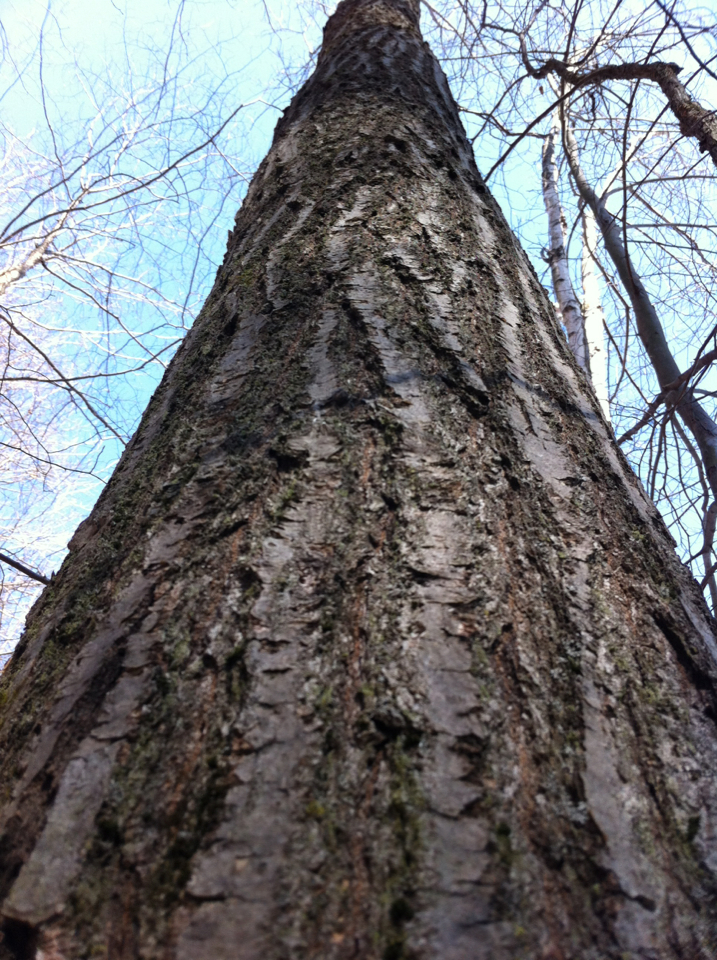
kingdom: Plantae
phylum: Tracheophyta
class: Magnoliopsida
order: Fagales
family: Fagaceae
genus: Quercus
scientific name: Quercus rubra
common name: Red oak
